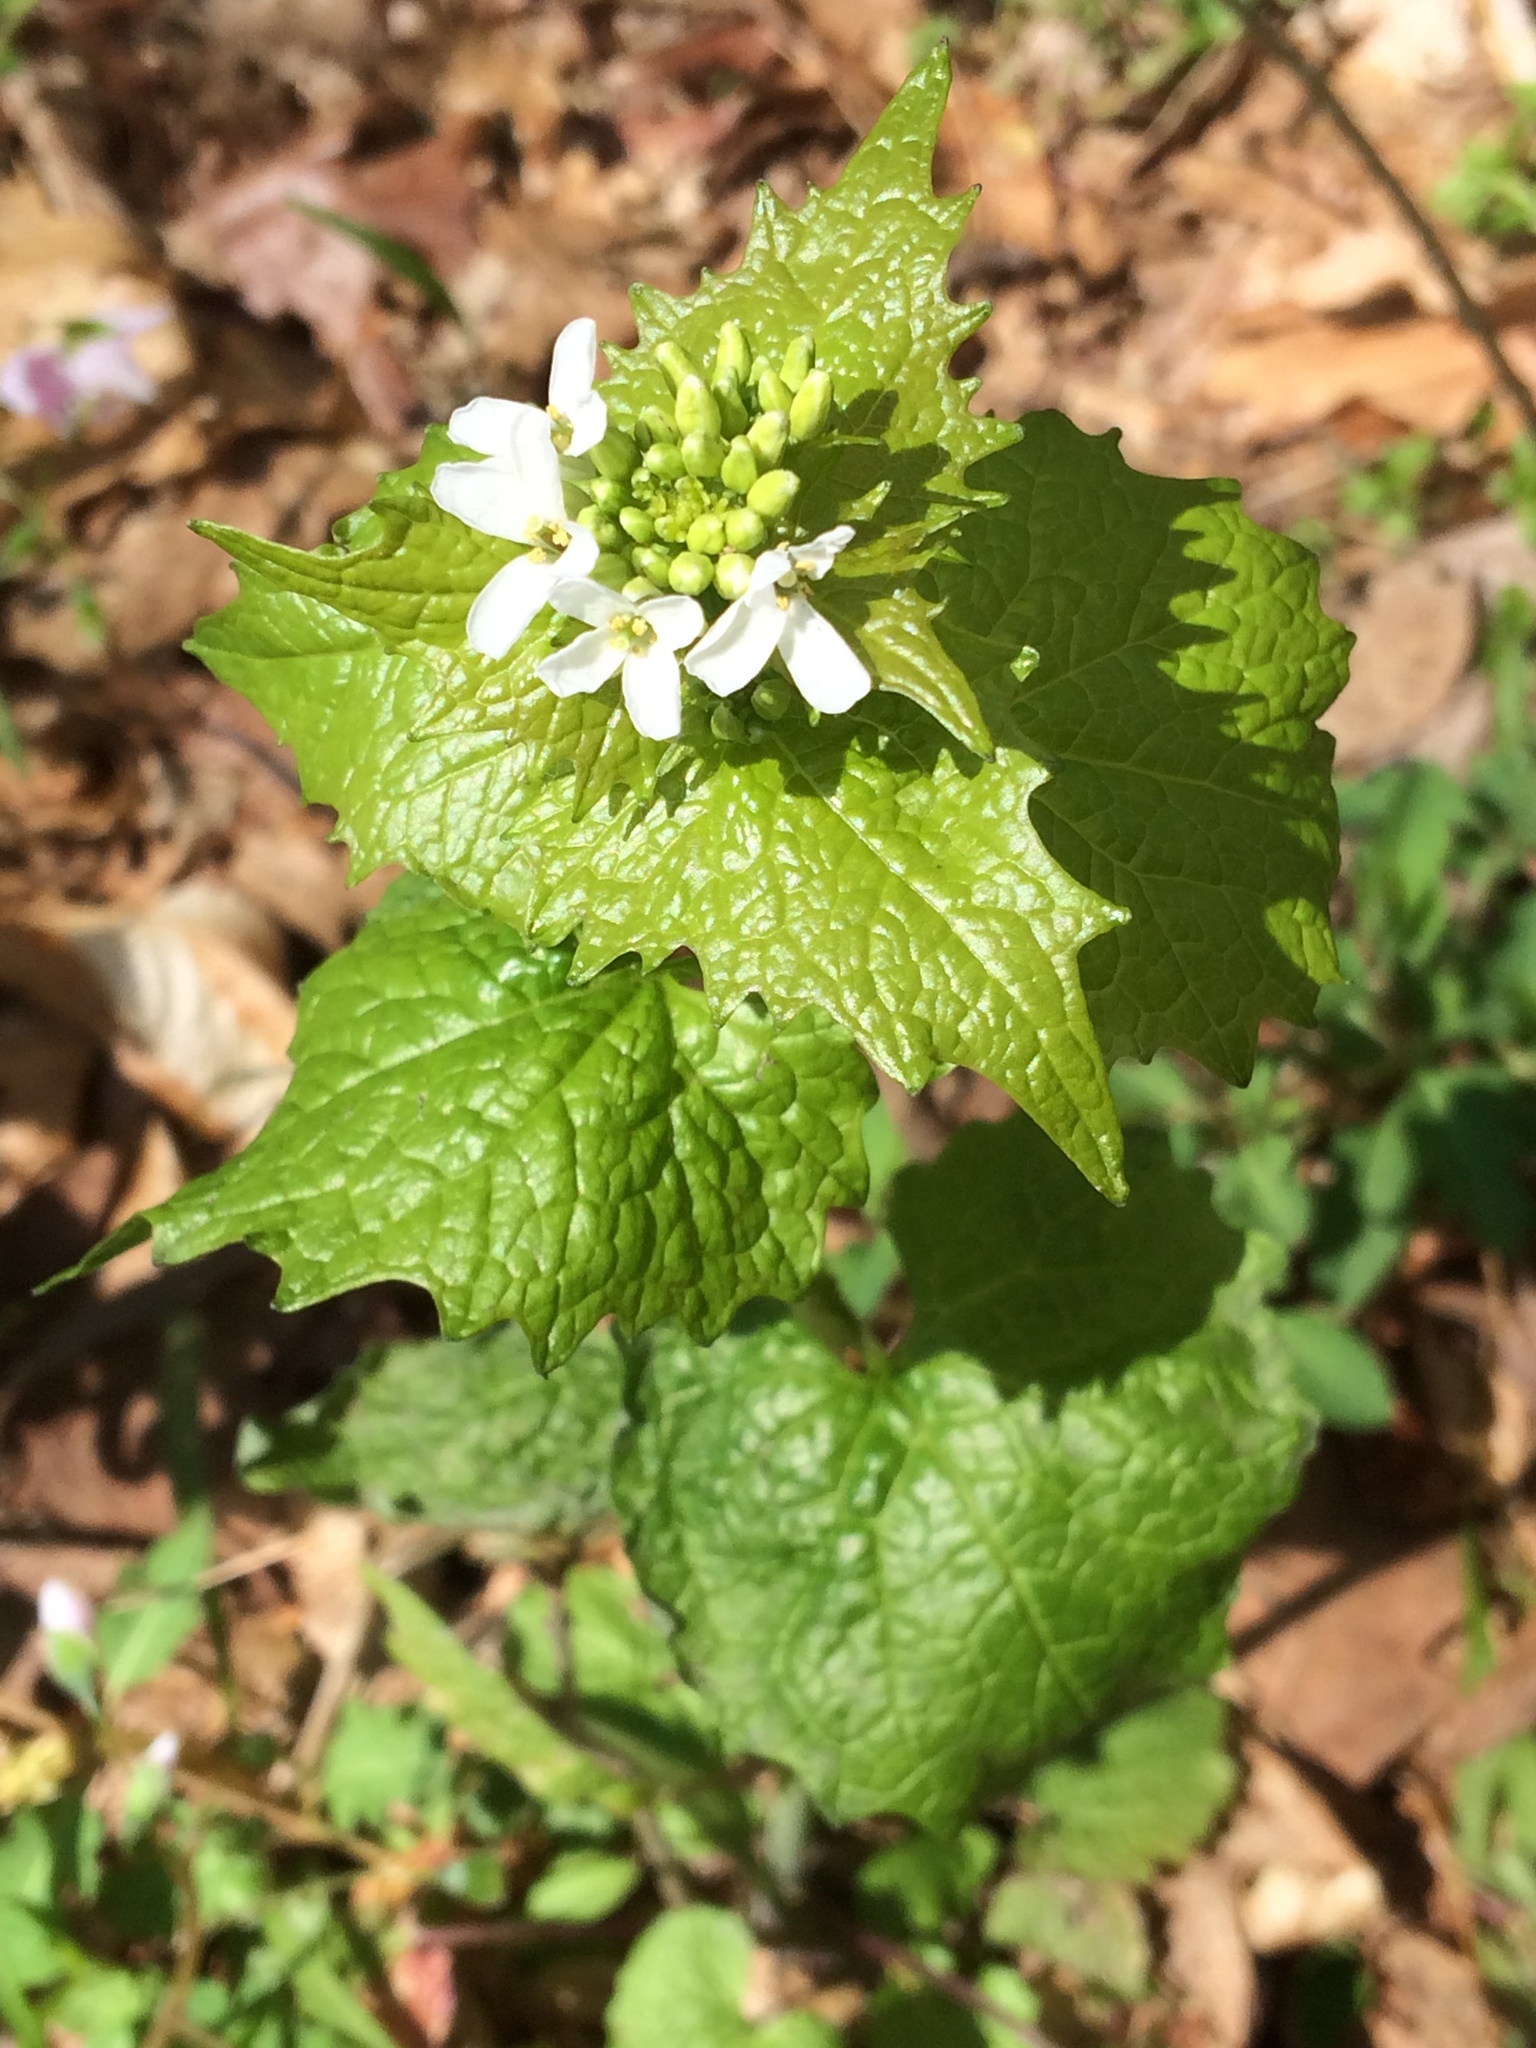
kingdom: Plantae
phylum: Tracheophyta
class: Magnoliopsida
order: Brassicales
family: Brassicaceae
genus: Alliaria
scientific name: Alliaria petiolata
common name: Garlic mustard
